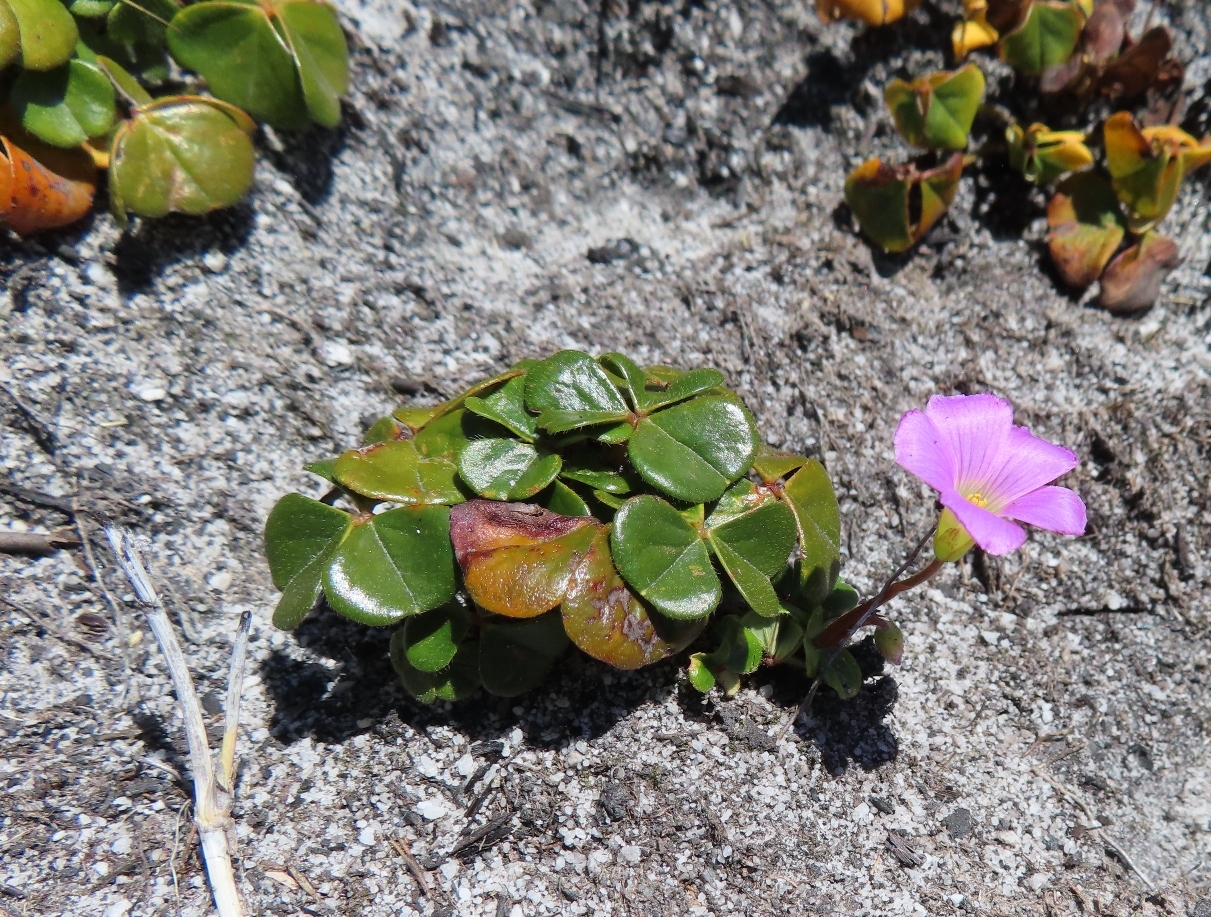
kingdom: Plantae
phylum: Tracheophyta
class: Magnoliopsida
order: Oxalidales
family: Oxalidaceae
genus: Oxalis
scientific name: Oxalis truncatula
